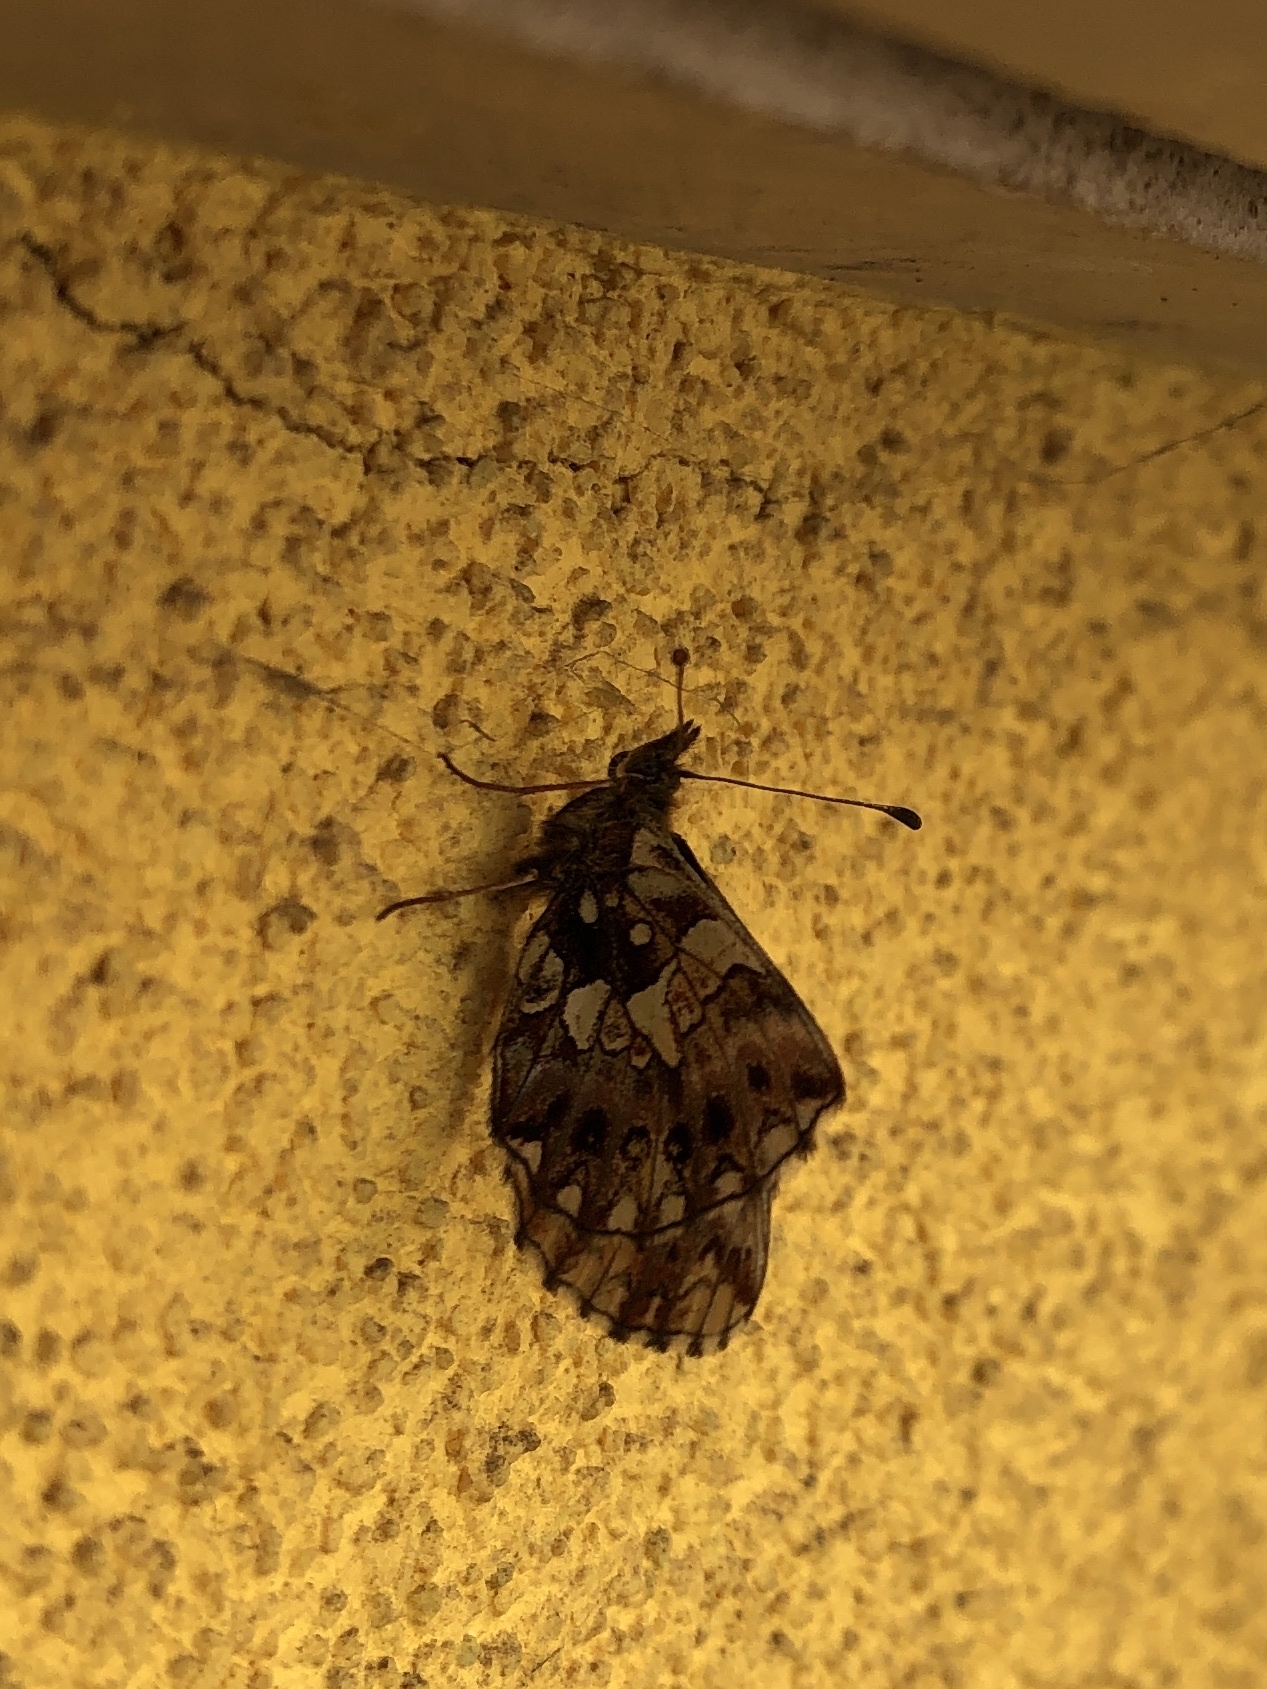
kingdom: Animalia
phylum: Arthropoda
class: Insecta
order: Lepidoptera
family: Nymphalidae
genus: Boloria
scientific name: Boloria dia
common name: Weaver's fritillary
